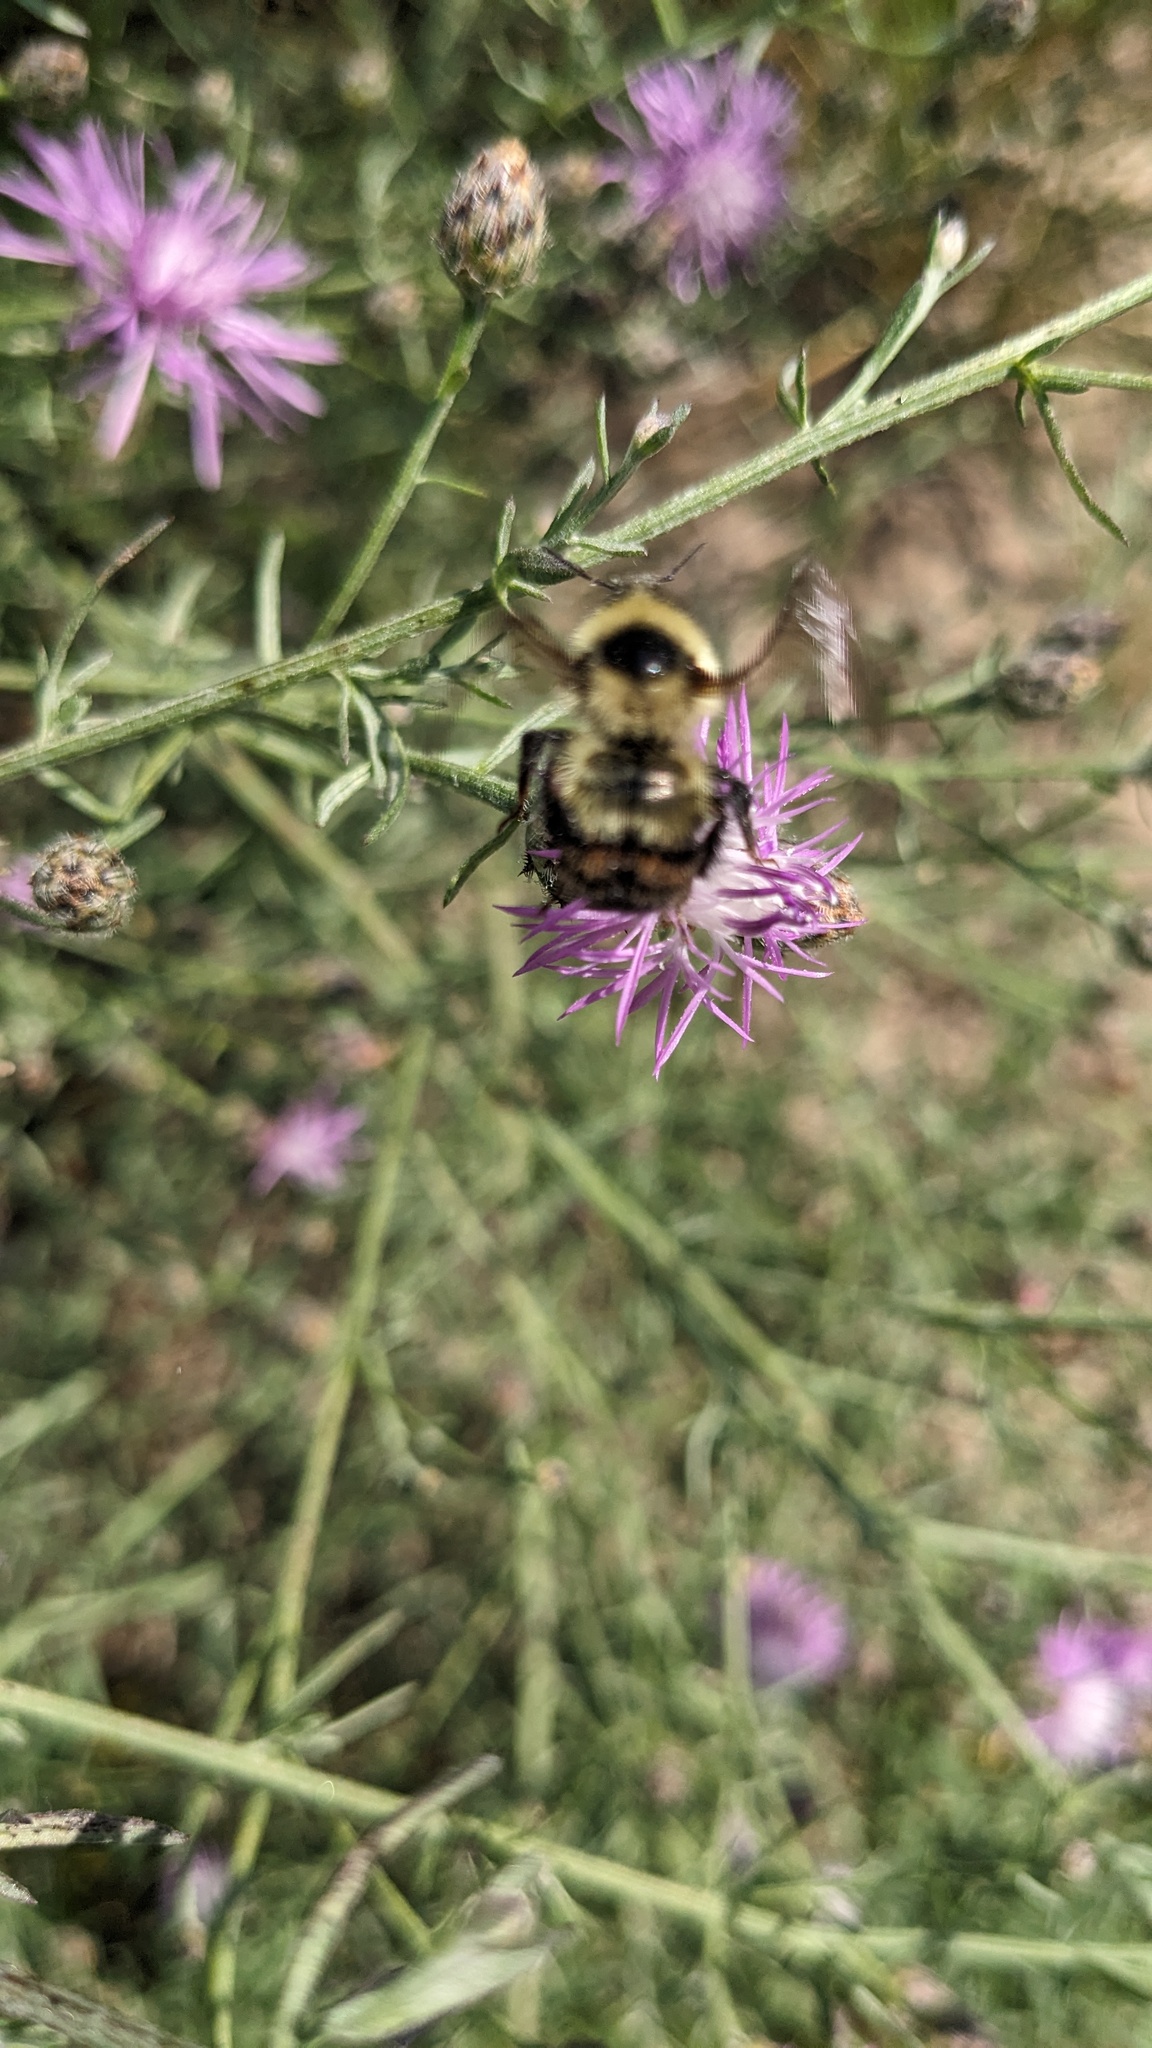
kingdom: Animalia
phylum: Arthropoda
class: Insecta
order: Hymenoptera
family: Apidae
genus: Bombus
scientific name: Bombus rufocinctus
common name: Red-belted bumble bee
